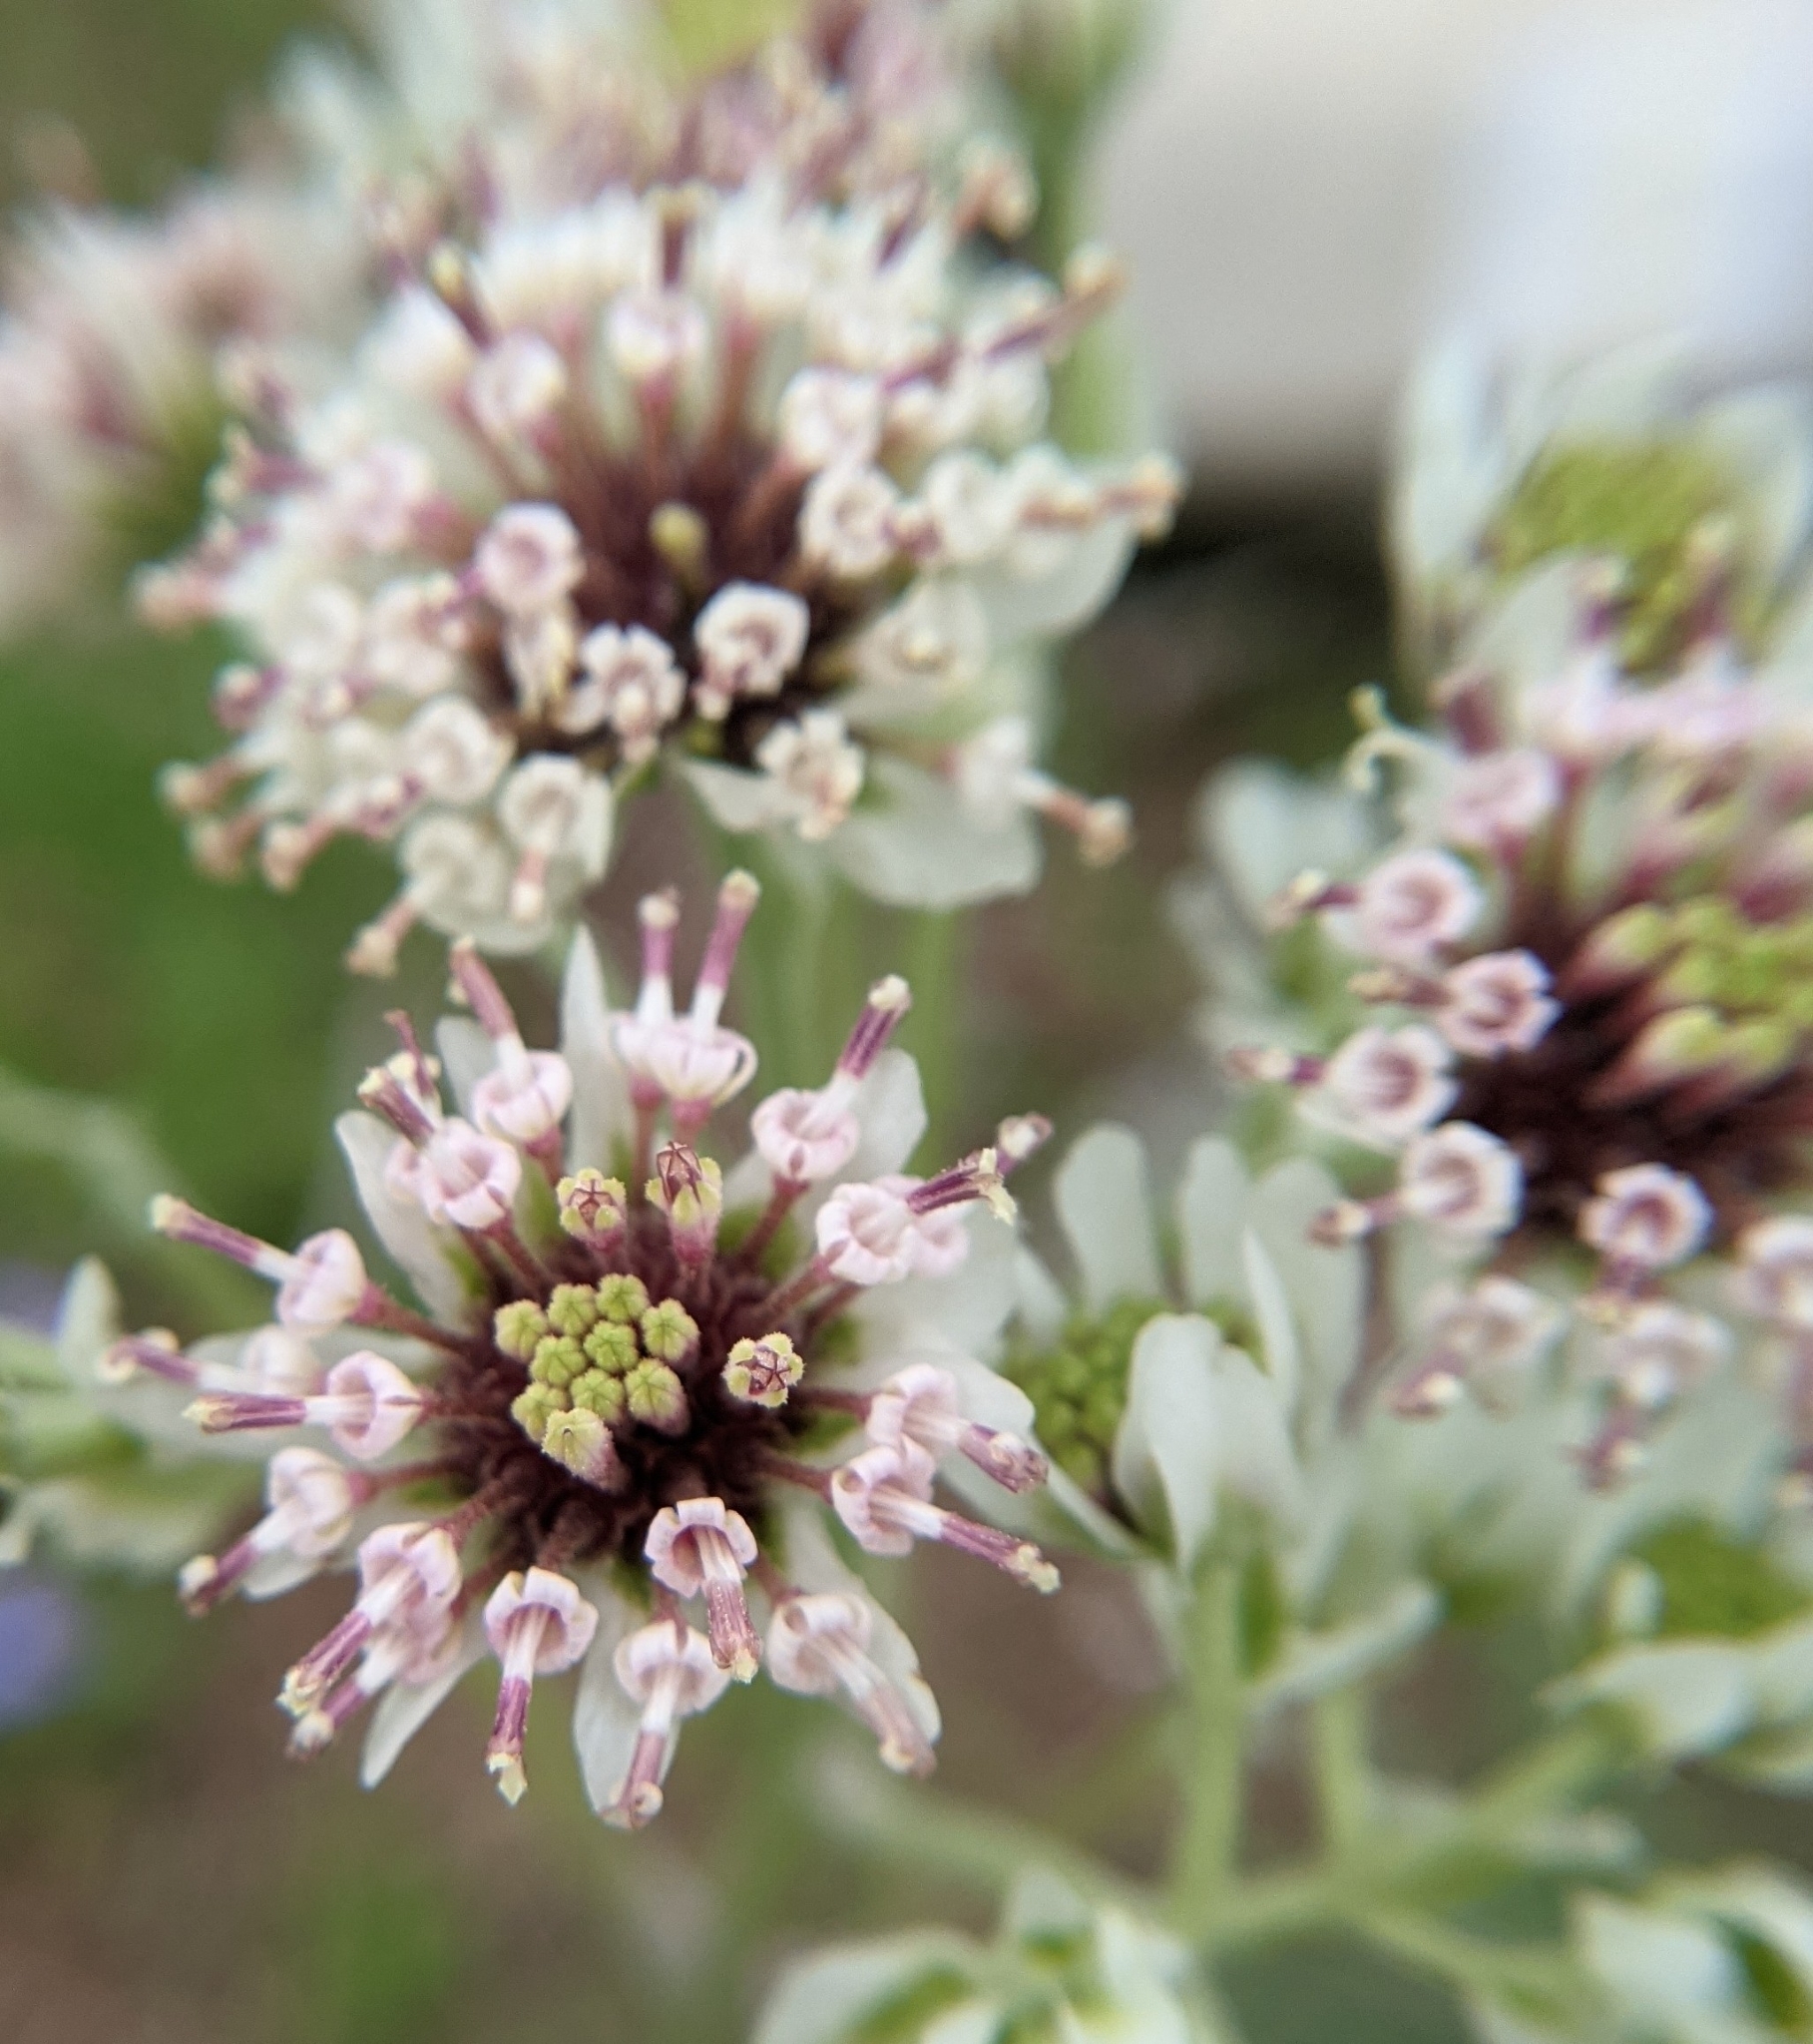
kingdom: Plantae
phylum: Tracheophyta
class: Magnoliopsida
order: Asterales
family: Asteraceae
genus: Hymenopappus
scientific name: Hymenopappus artemisiifolius
